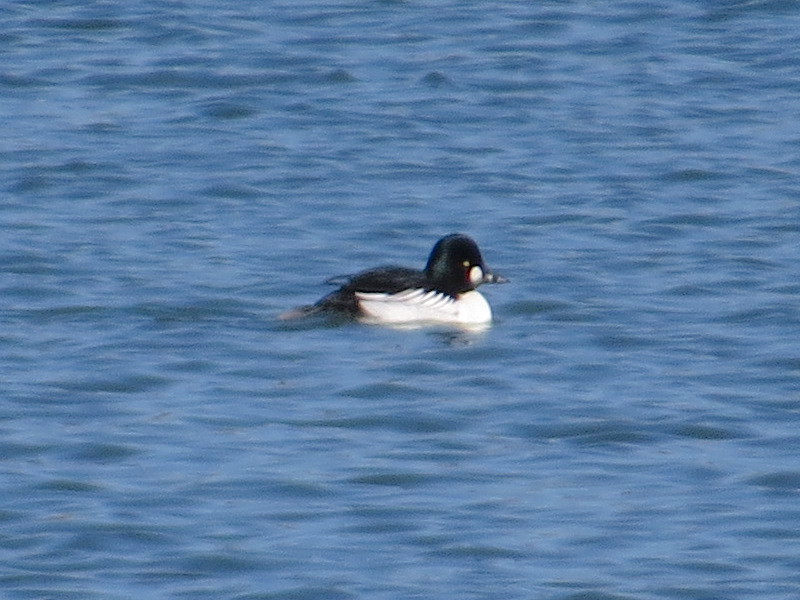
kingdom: Animalia
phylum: Chordata
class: Aves
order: Anseriformes
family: Anatidae
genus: Bucephala
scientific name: Bucephala clangula
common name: Common goldeneye
